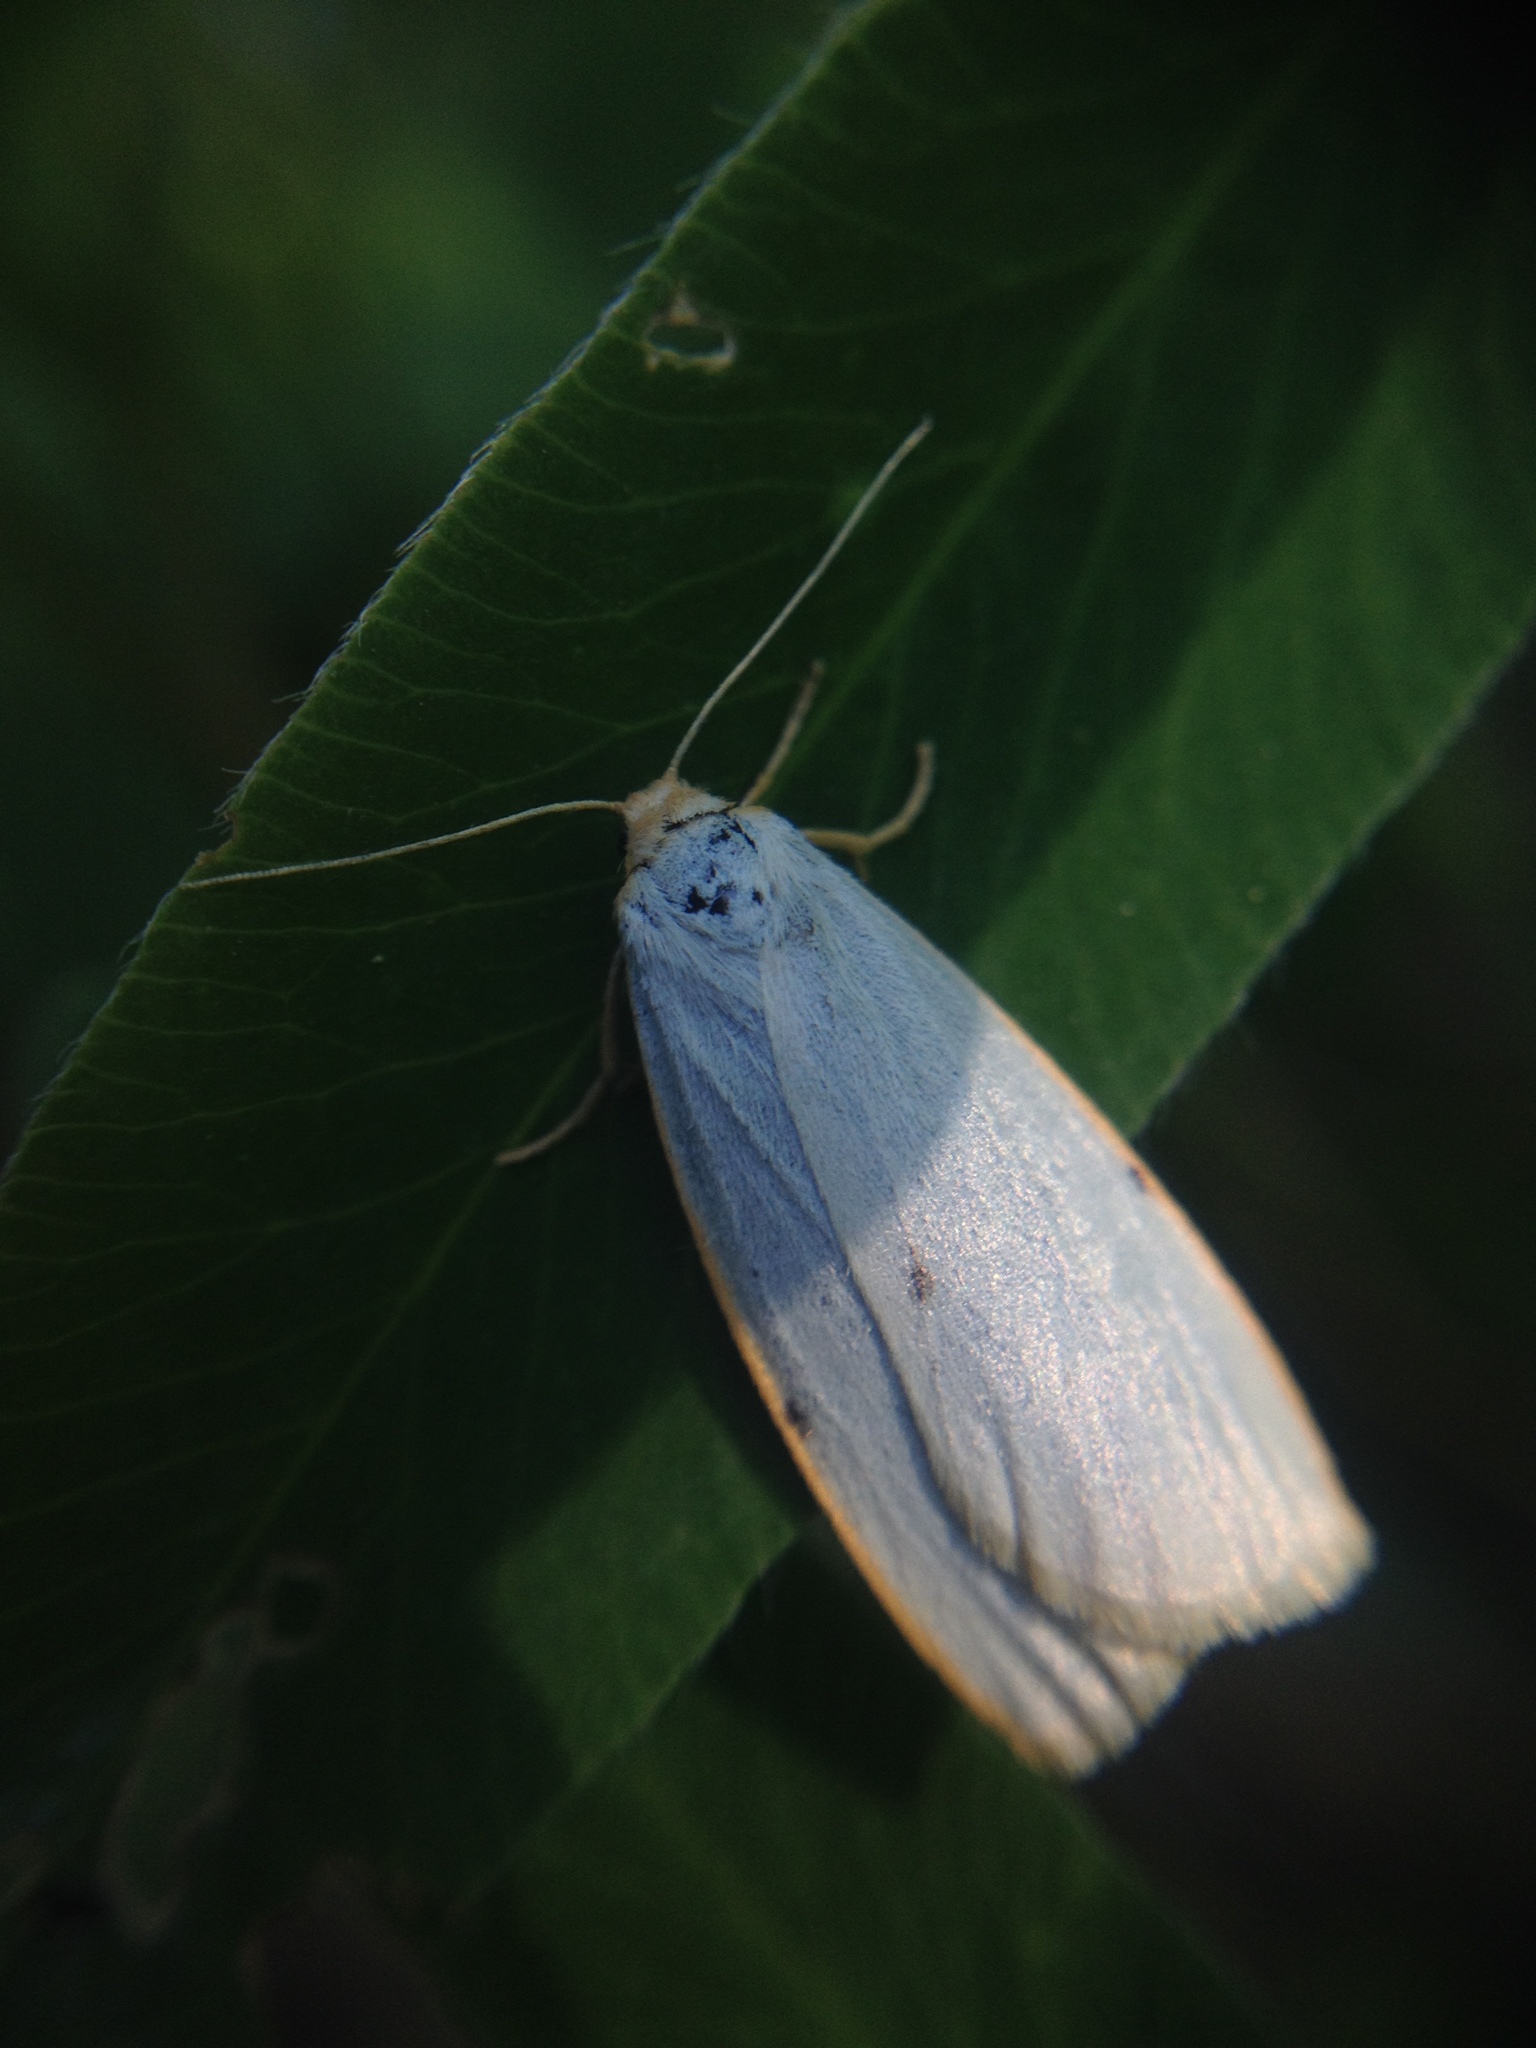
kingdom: Animalia
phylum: Arthropoda
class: Insecta
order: Lepidoptera
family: Erebidae
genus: Cybosia
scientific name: Cybosia mesomella
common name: Four-dotted footman
